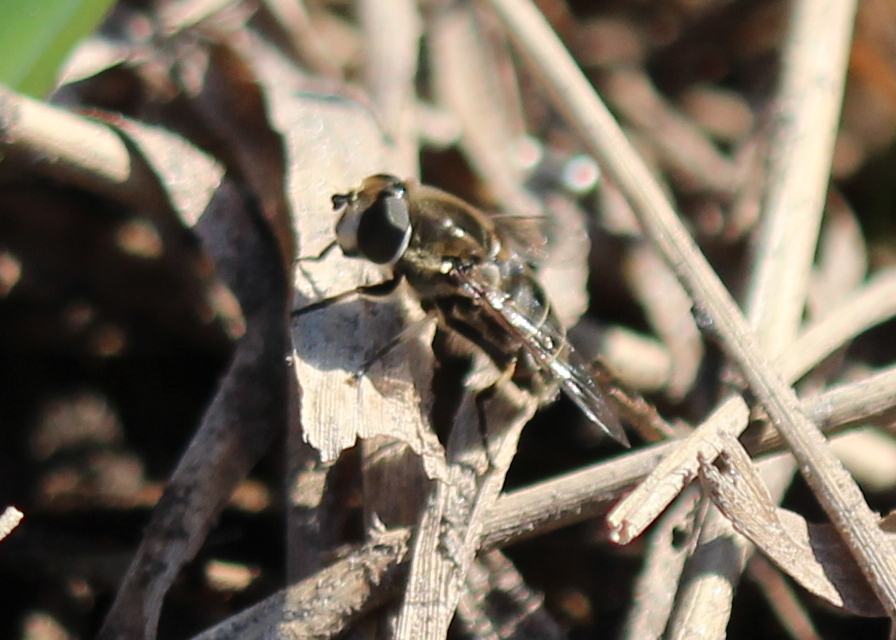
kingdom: Animalia
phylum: Arthropoda
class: Insecta
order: Diptera
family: Syrphidae
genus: Eristalis
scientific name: Eristalis dimidiata
